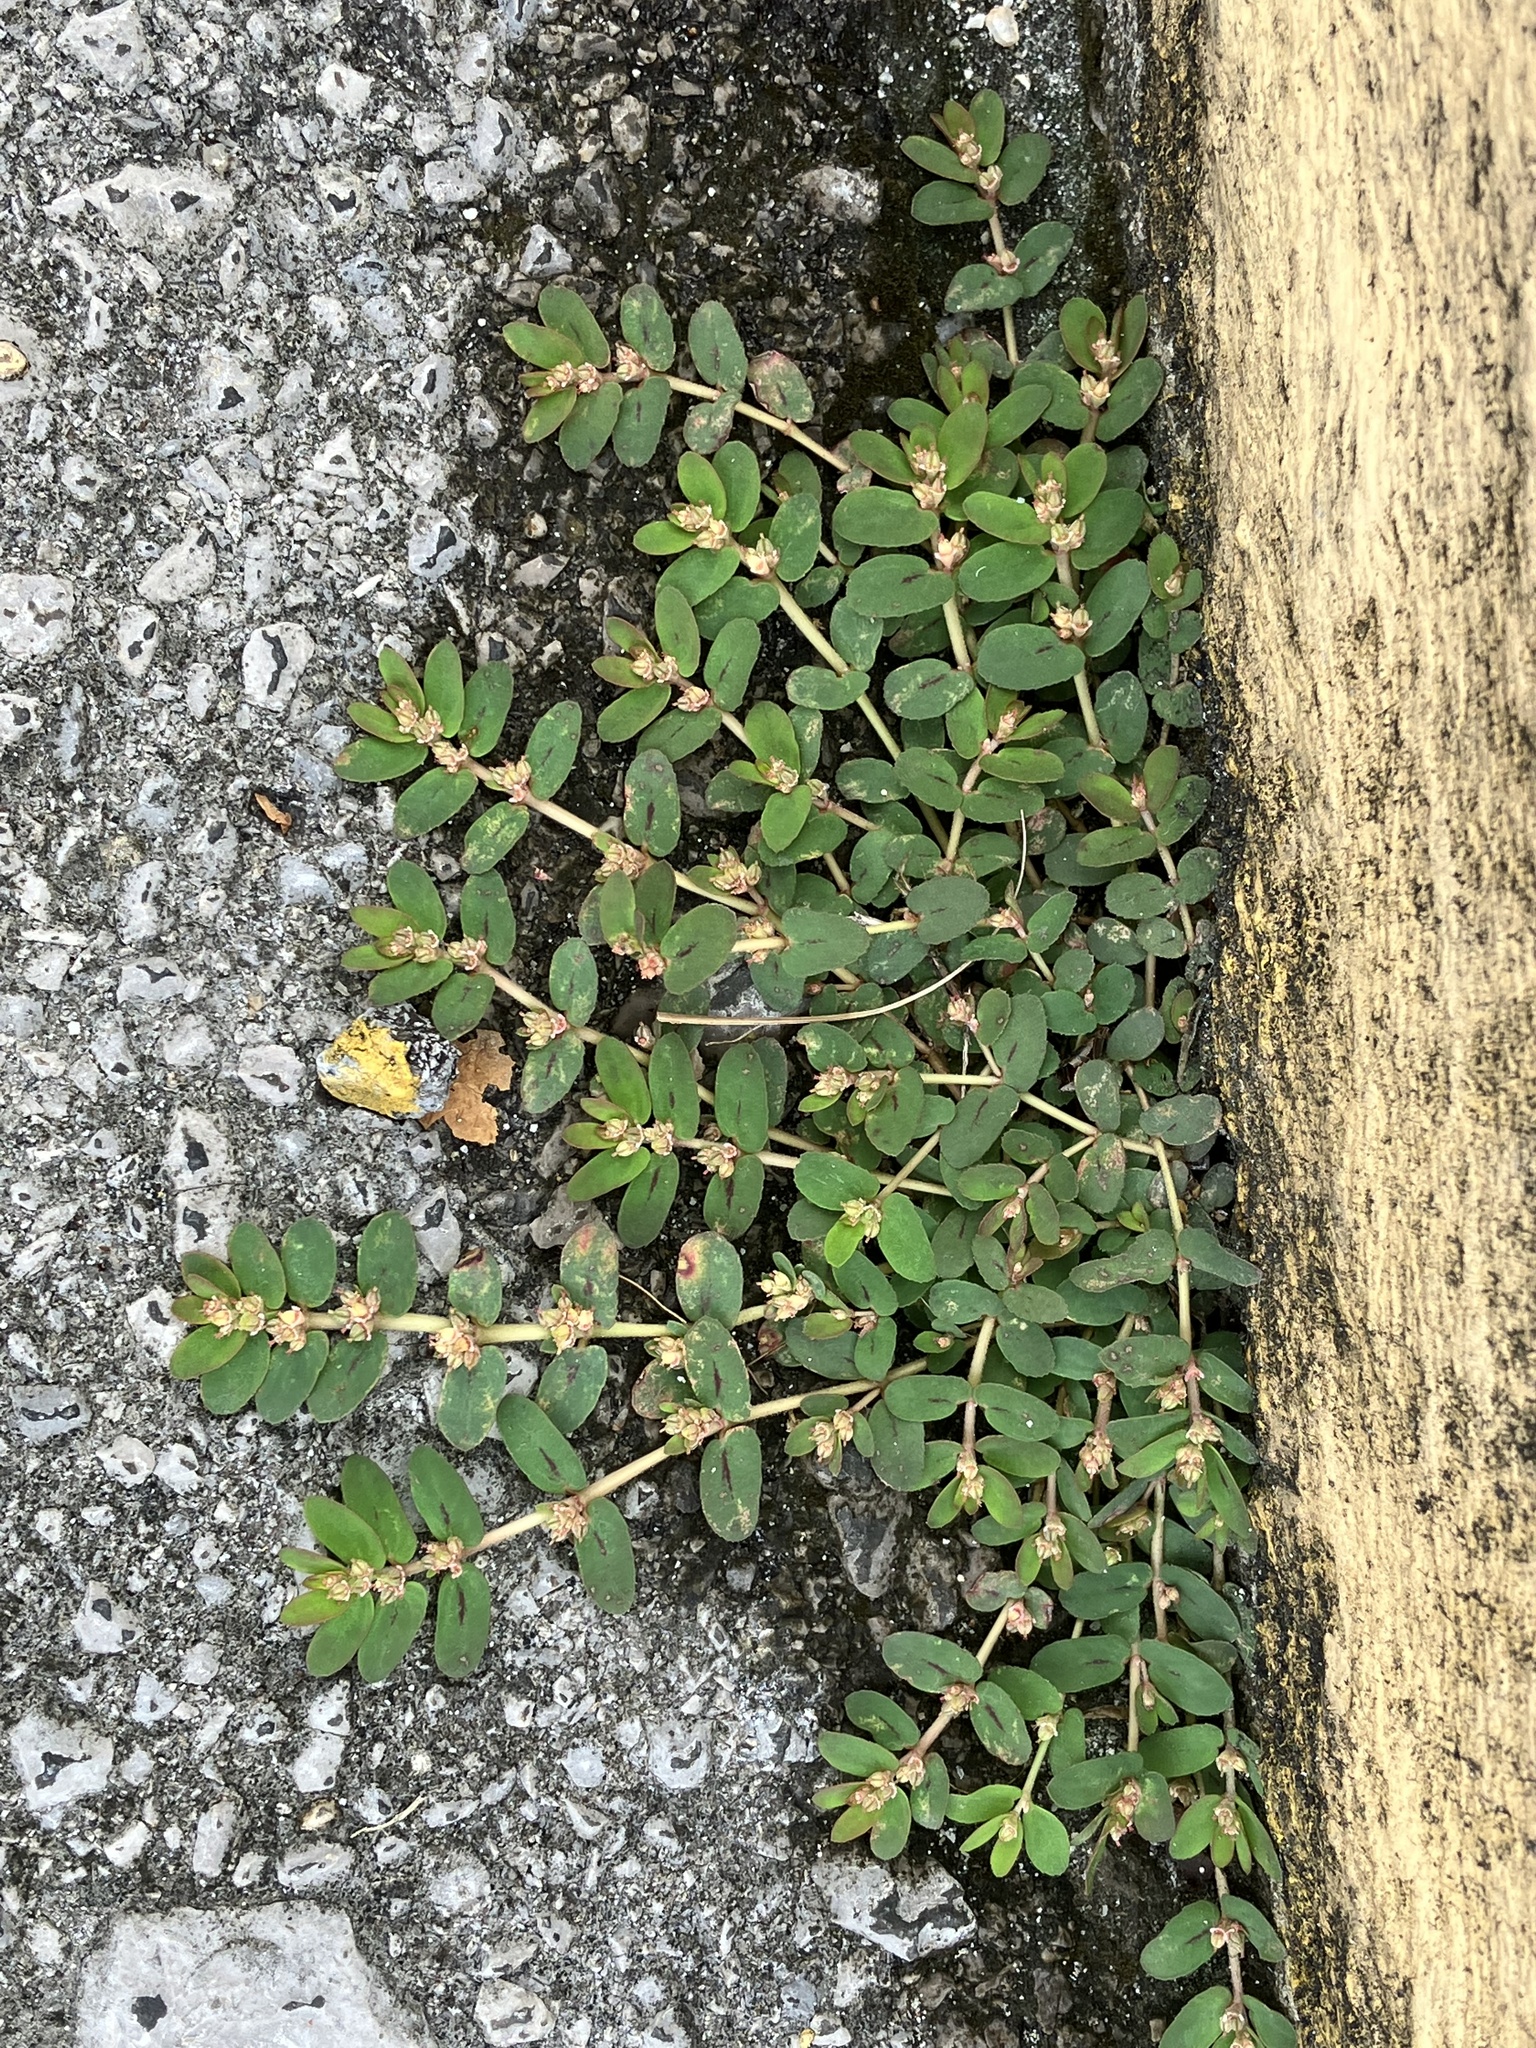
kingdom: Plantae
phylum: Tracheophyta
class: Magnoliopsida
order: Malpighiales
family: Euphorbiaceae
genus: Euphorbia
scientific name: Euphorbia thymifolia
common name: Gulf sandmat
